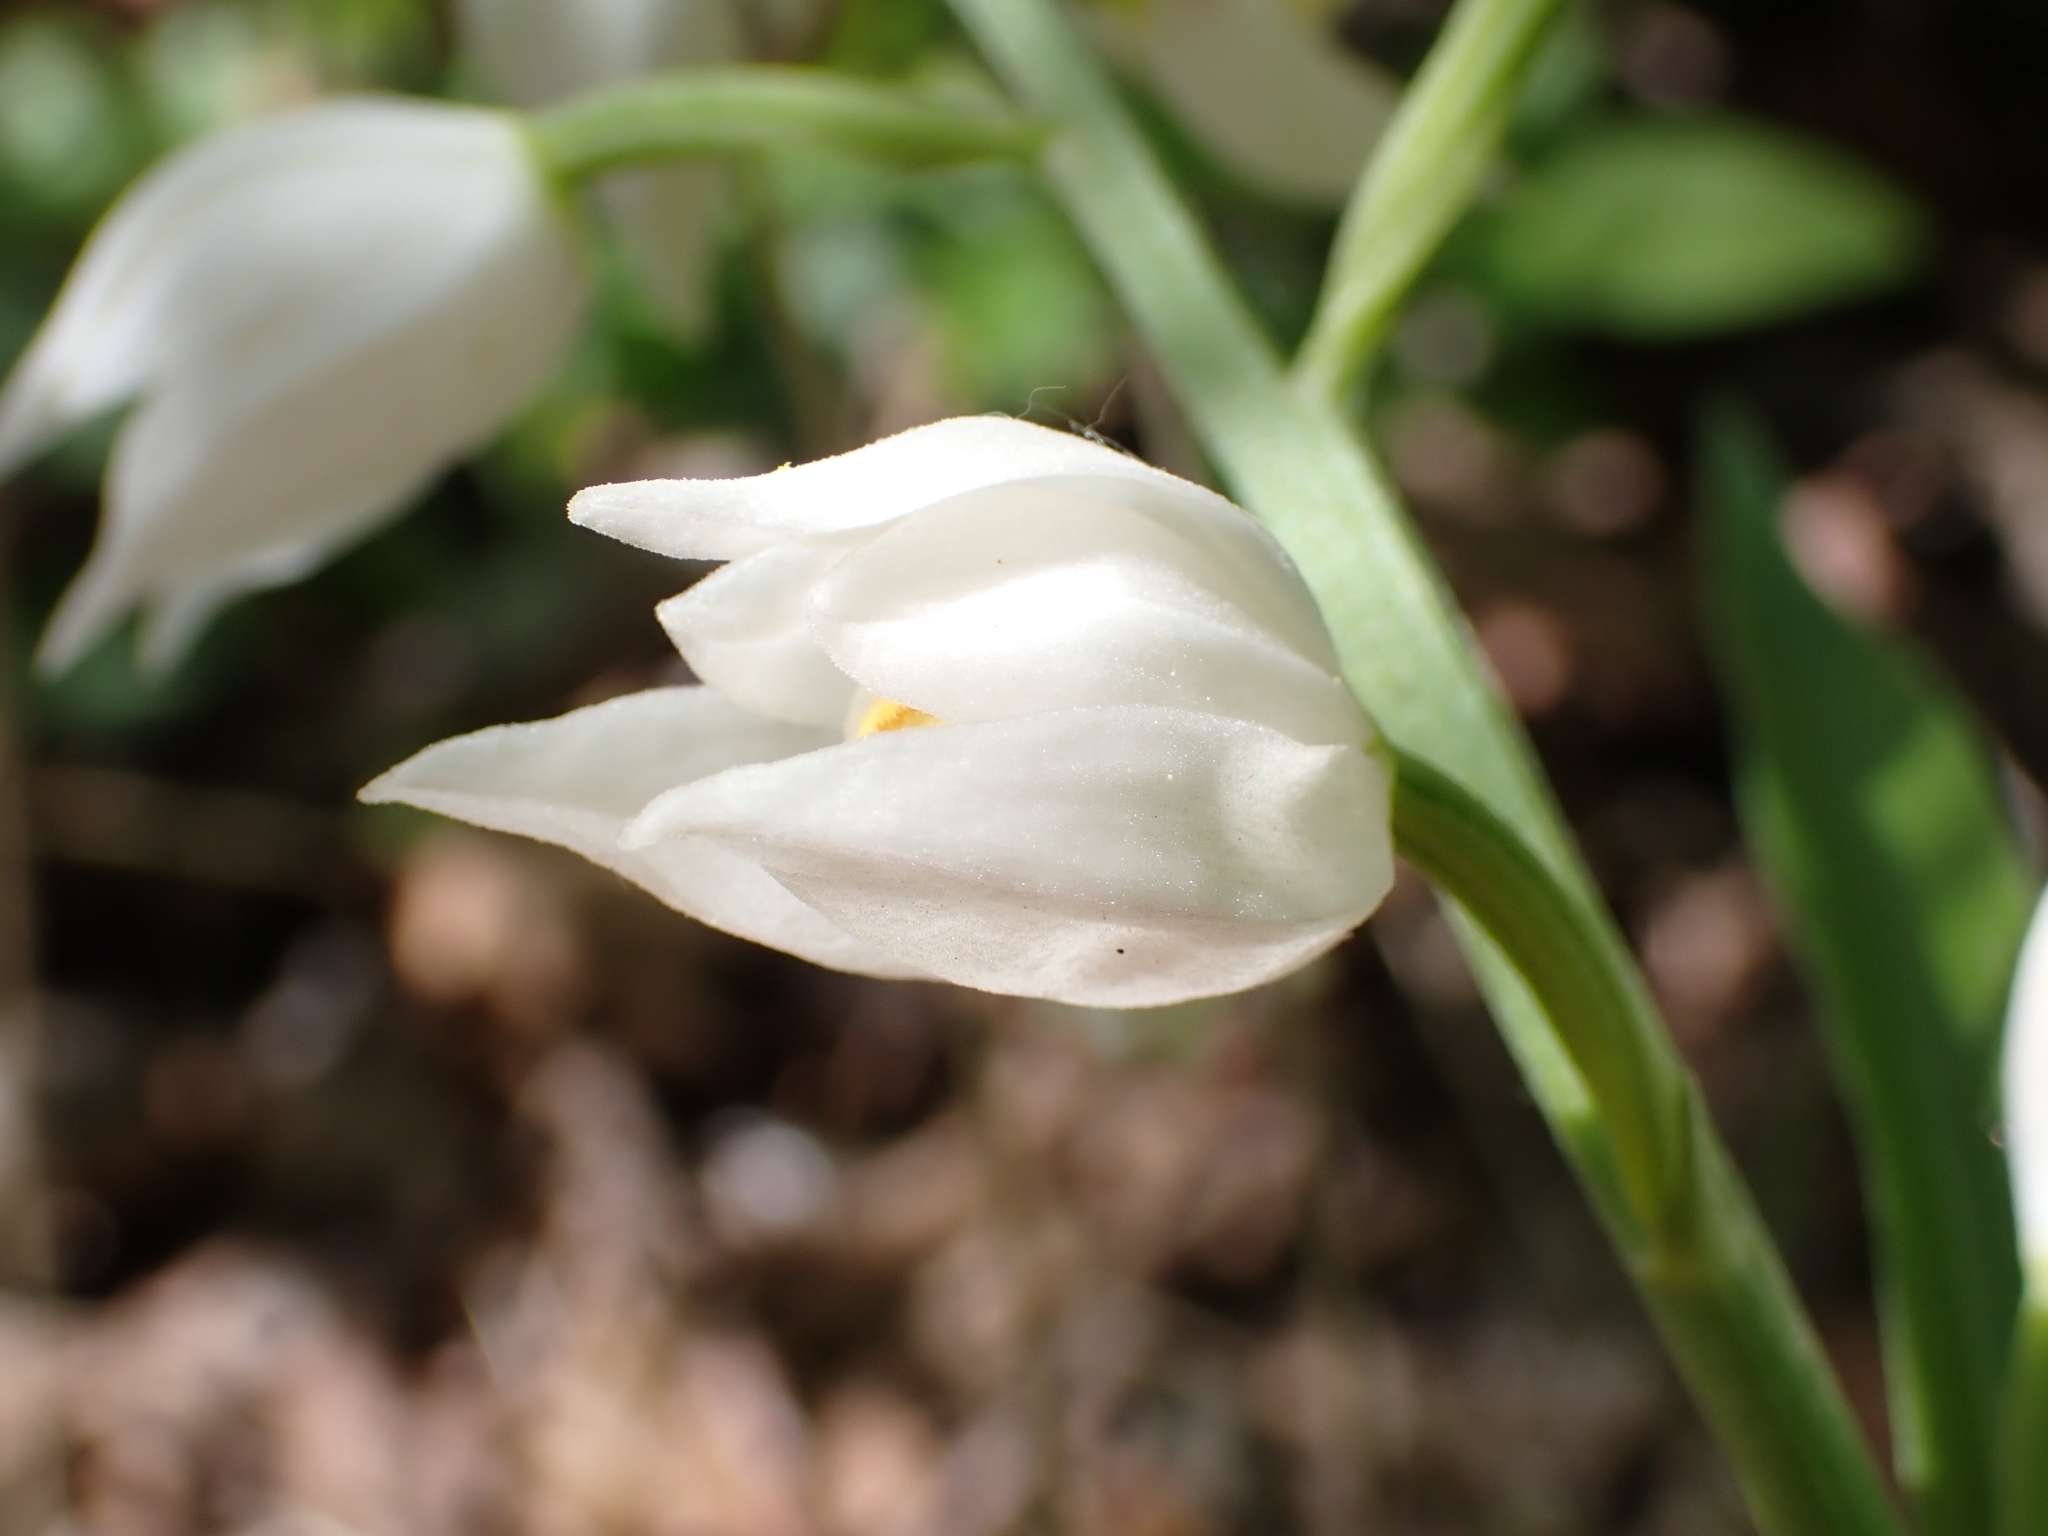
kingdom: Plantae
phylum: Tracheophyta
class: Liliopsida
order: Asparagales
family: Orchidaceae
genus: Cephalanthera
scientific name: Cephalanthera longifolia
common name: Narrow-leaved helleborine
